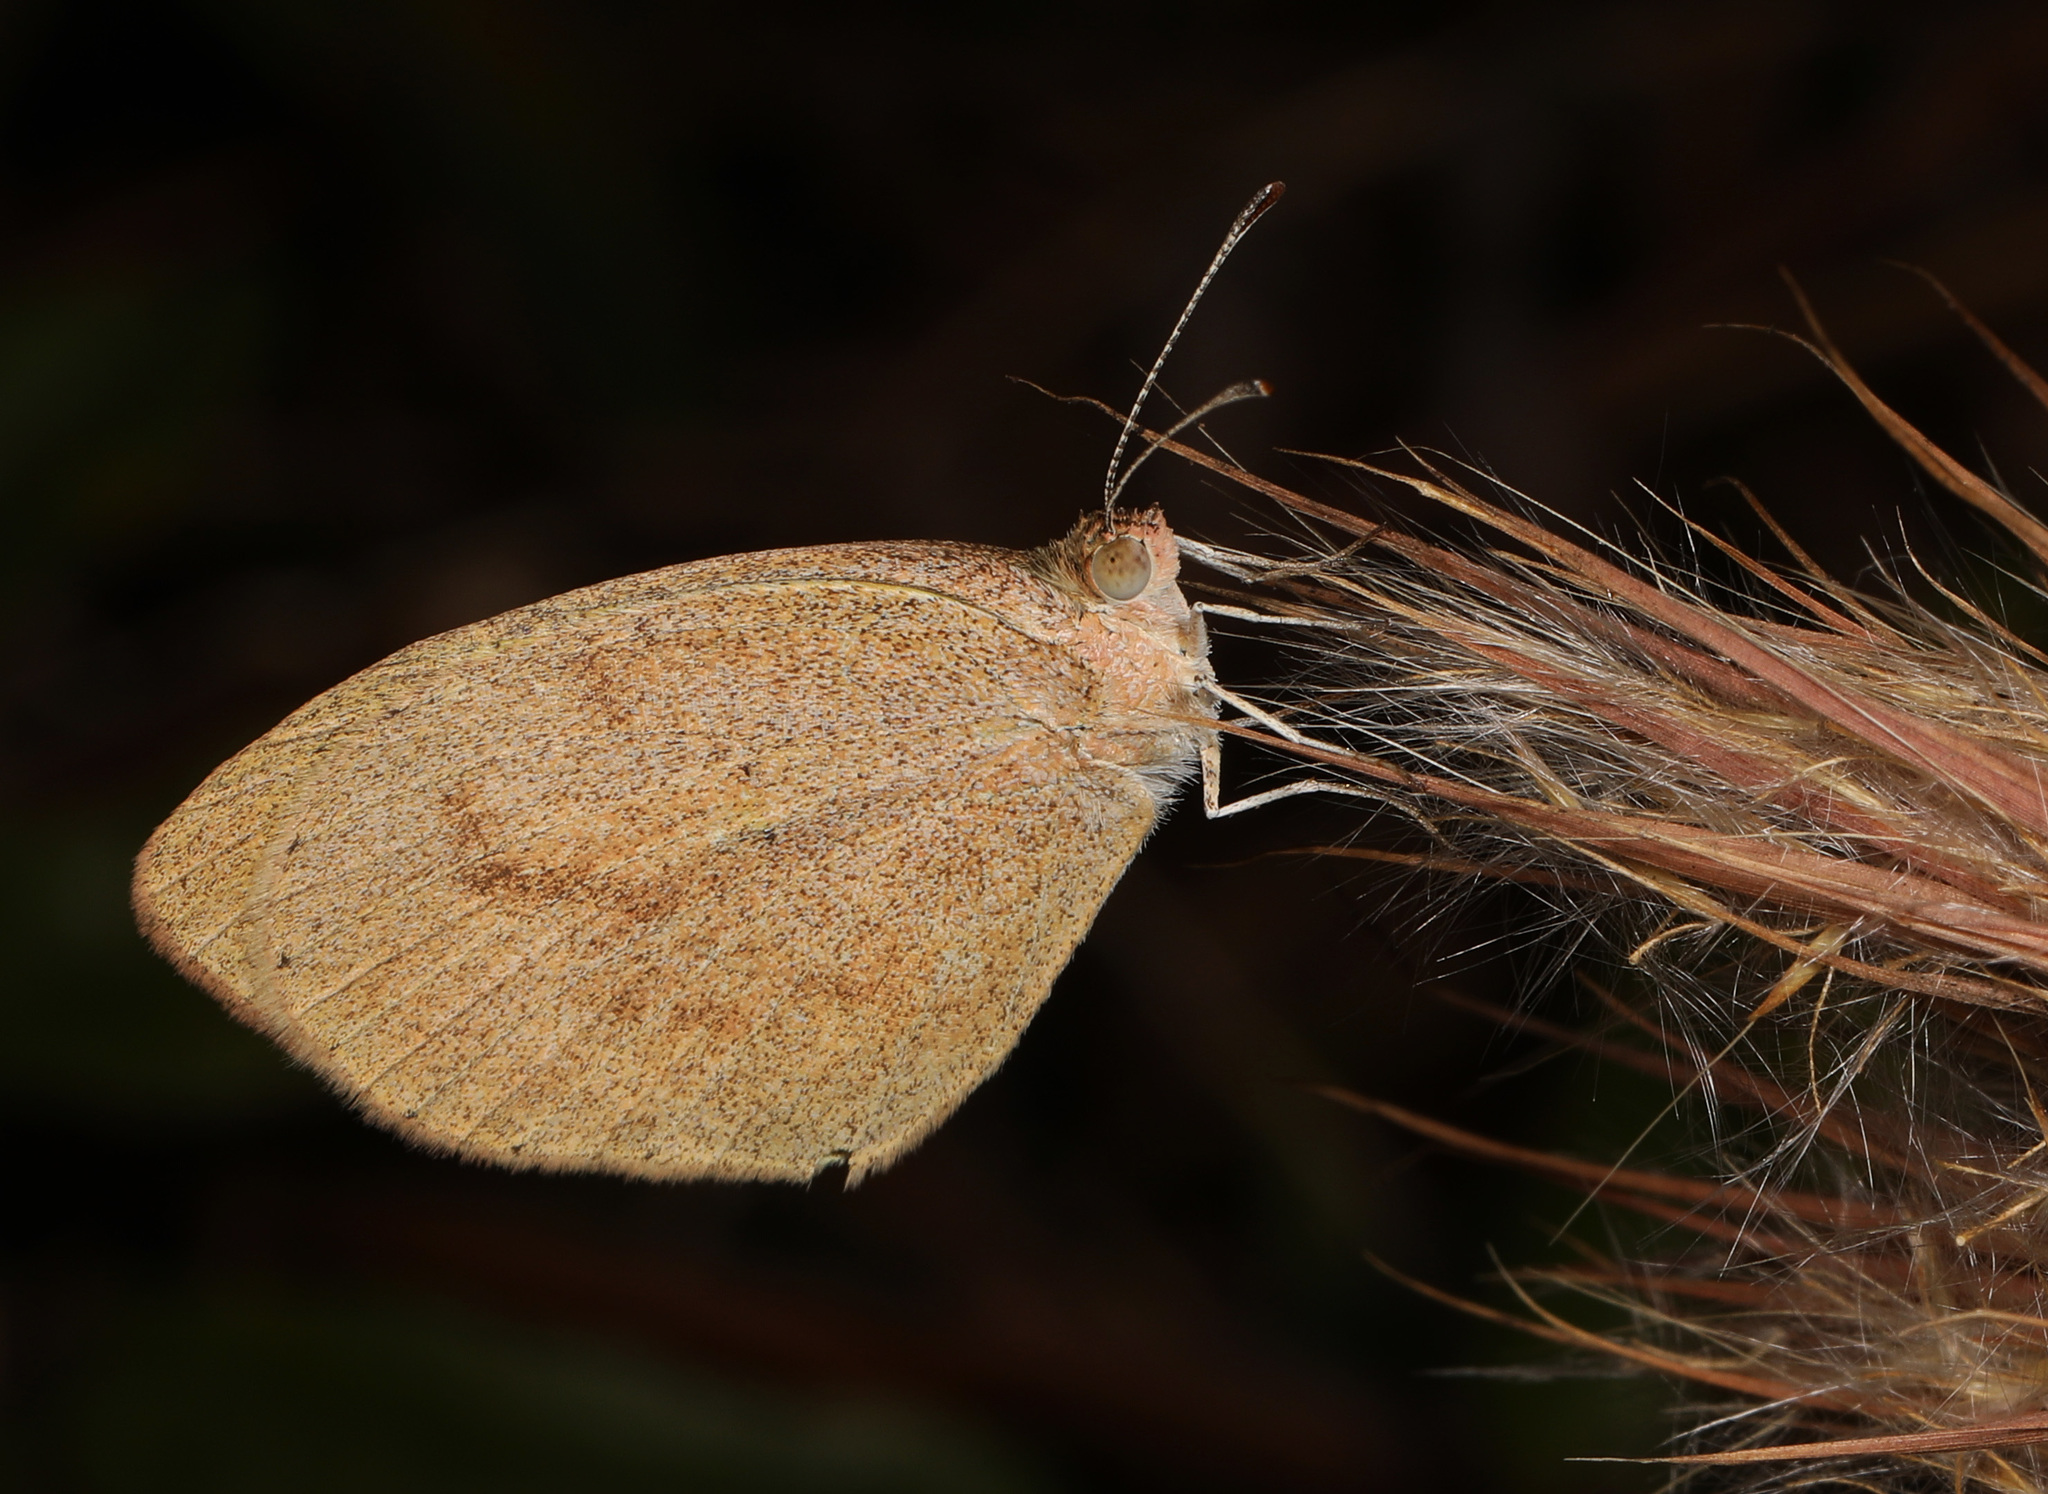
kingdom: Animalia
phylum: Arthropoda
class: Insecta
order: Lepidoptera
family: Pieridae
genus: Eurema
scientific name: Eurema daira
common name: Barred sulphur
